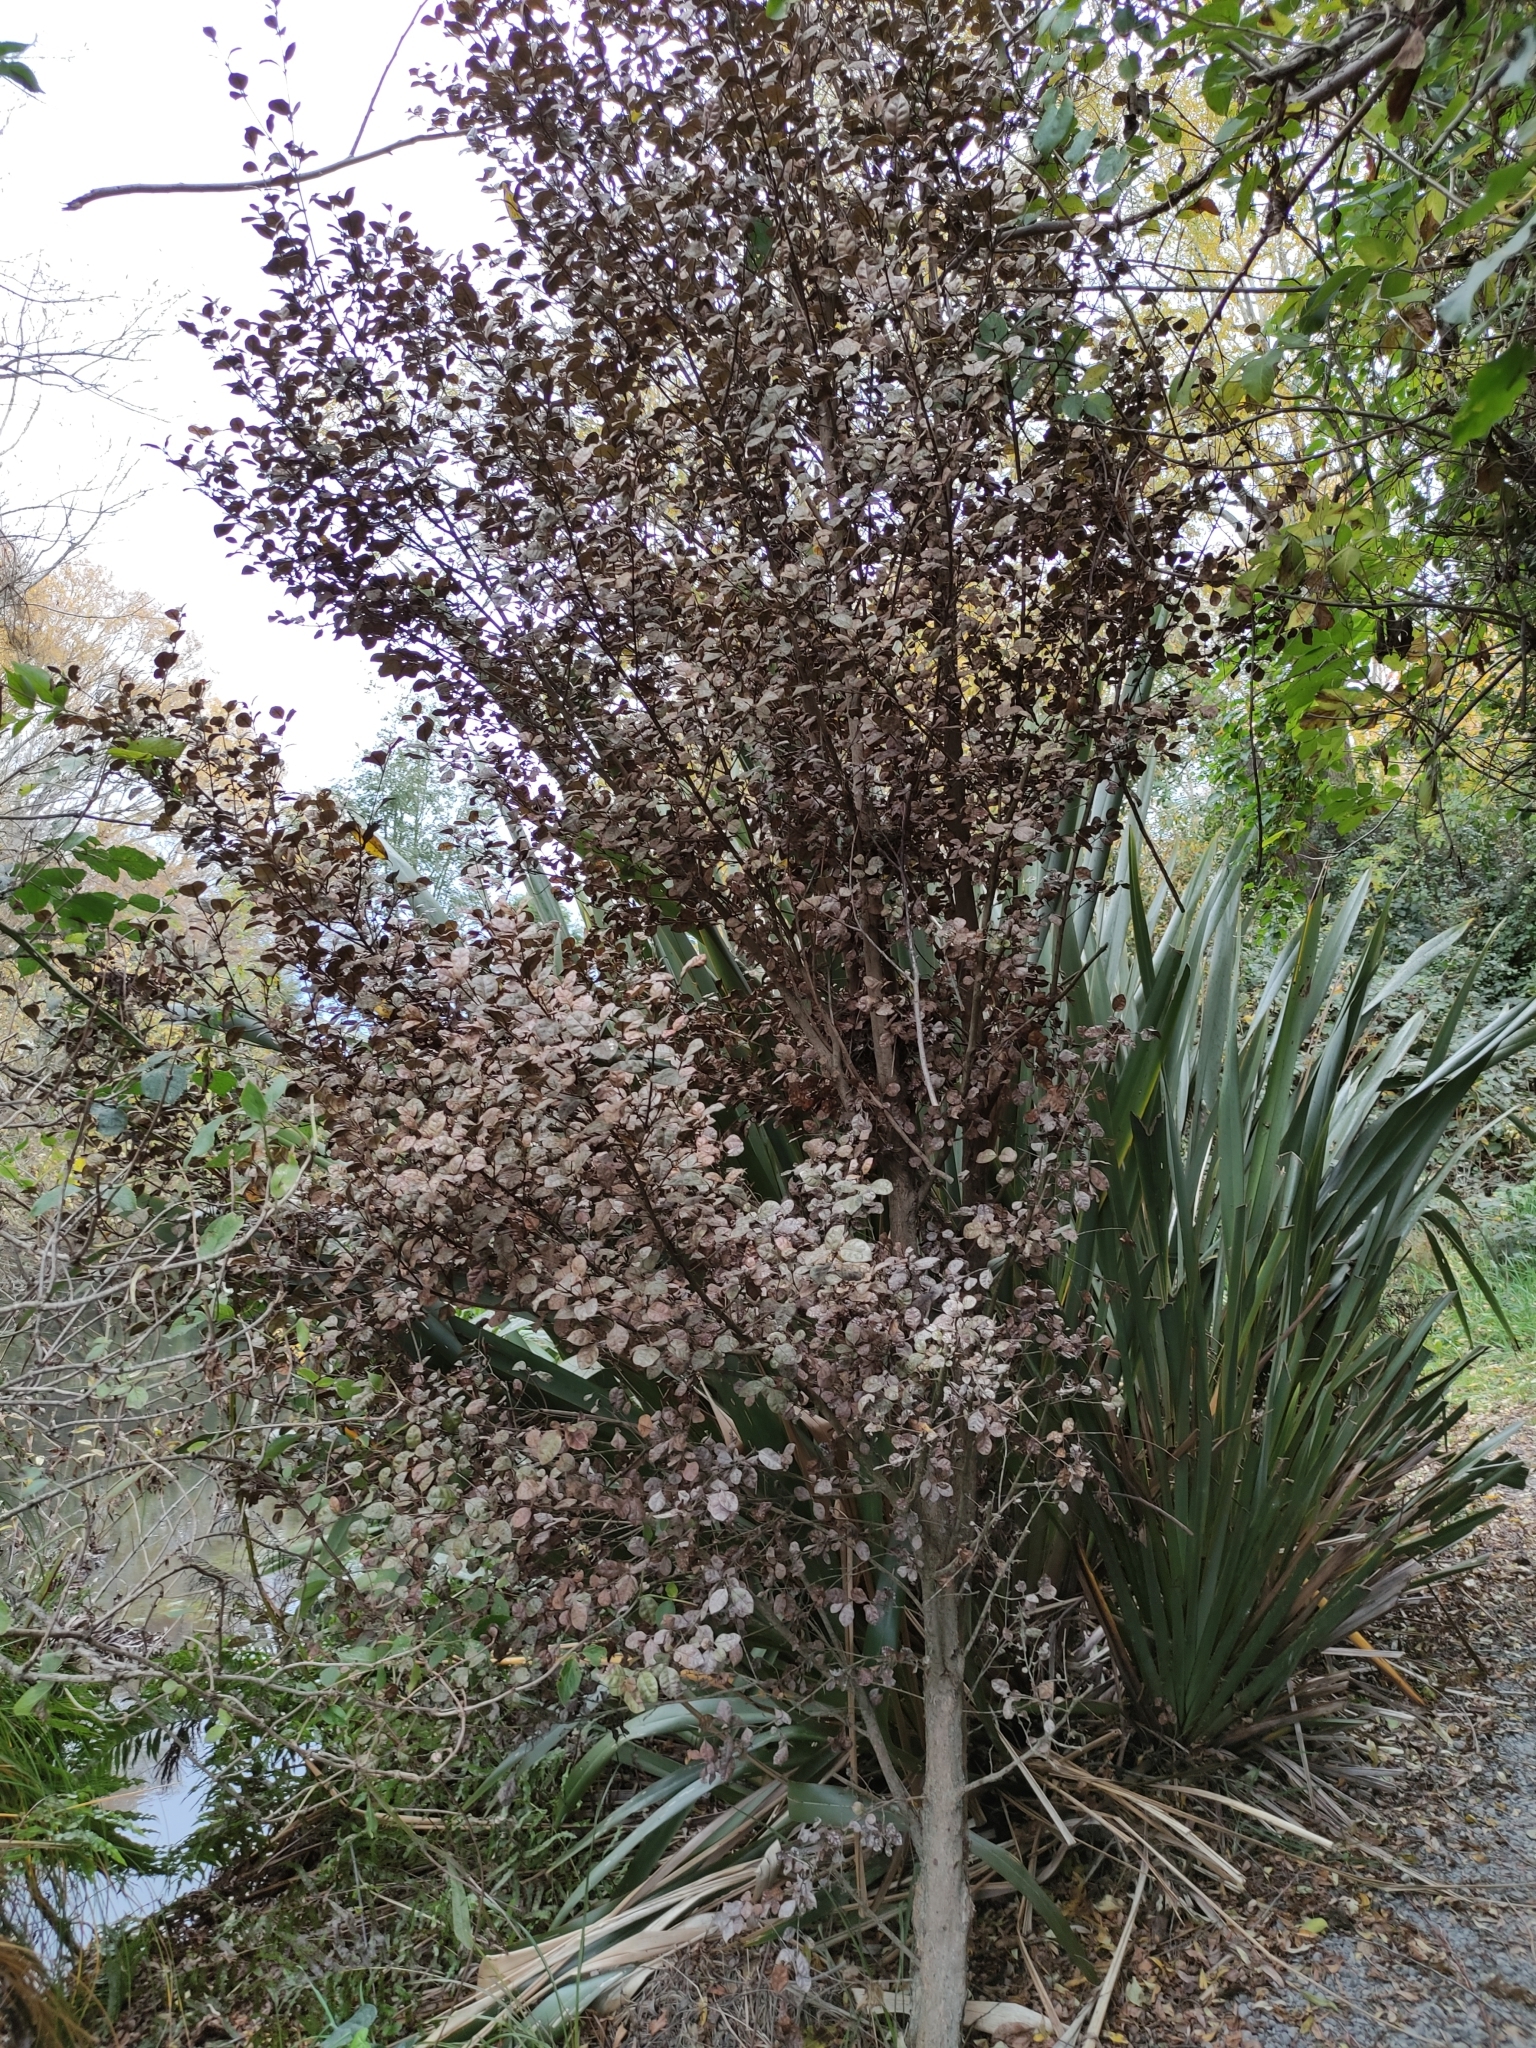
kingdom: Plantae
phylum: Tracheophyta
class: Magnoliopsida
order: Myrtales
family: Myrtaceae
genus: Lophomyrtus
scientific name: Lophomyrtus bullata
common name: Rama rama
